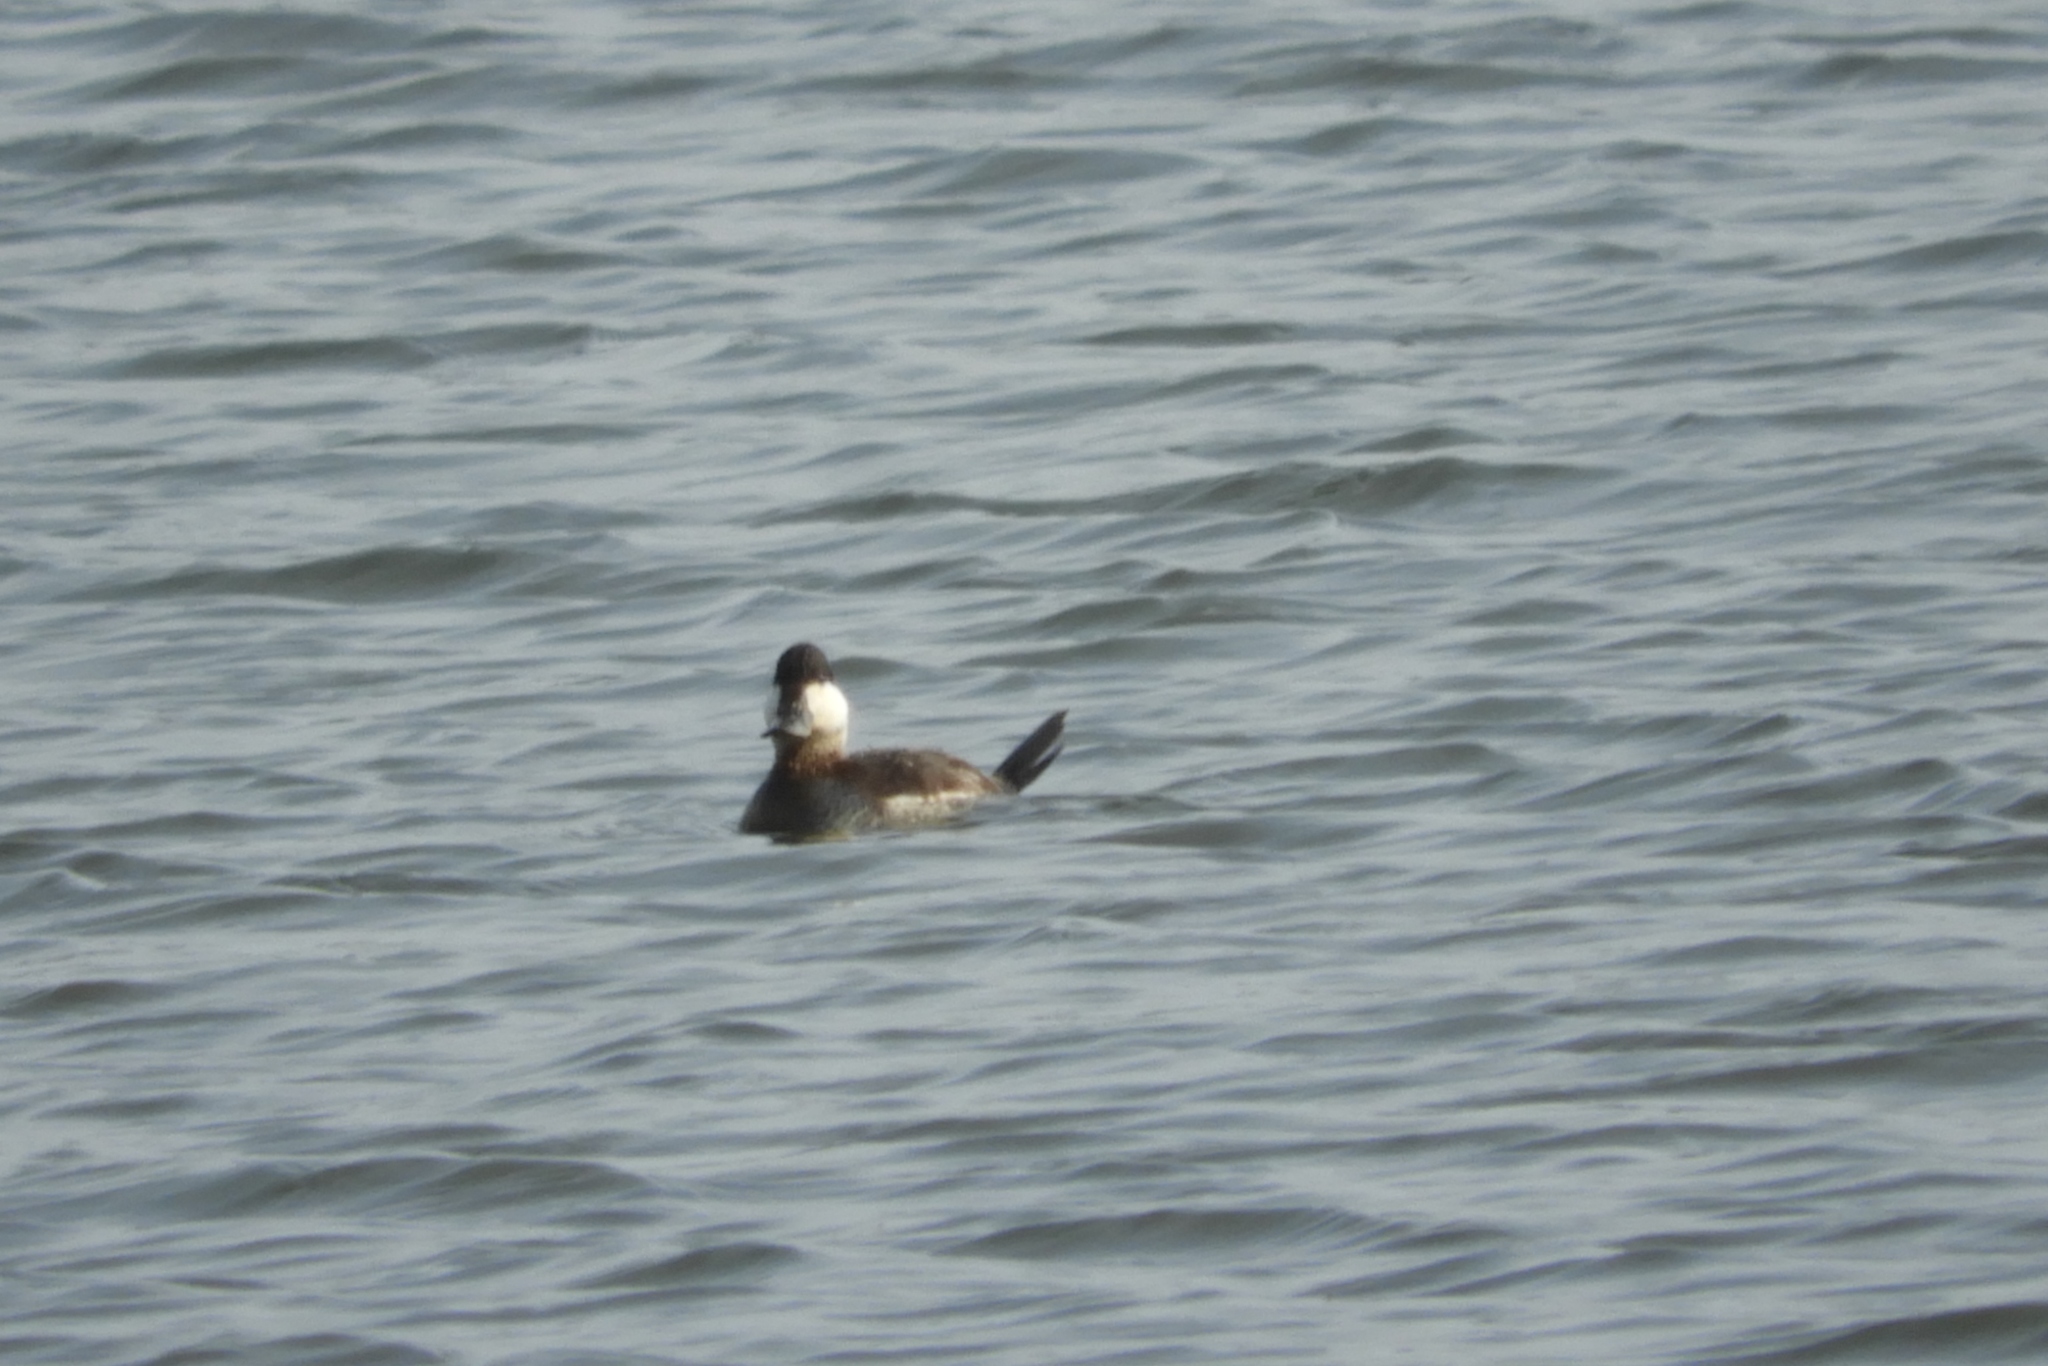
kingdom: Animalia
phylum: Chordata
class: Aves
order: Anseriformes
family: Anatidae
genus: Oxyura
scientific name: Oxyura jamaicensis
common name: Ruddy duck
